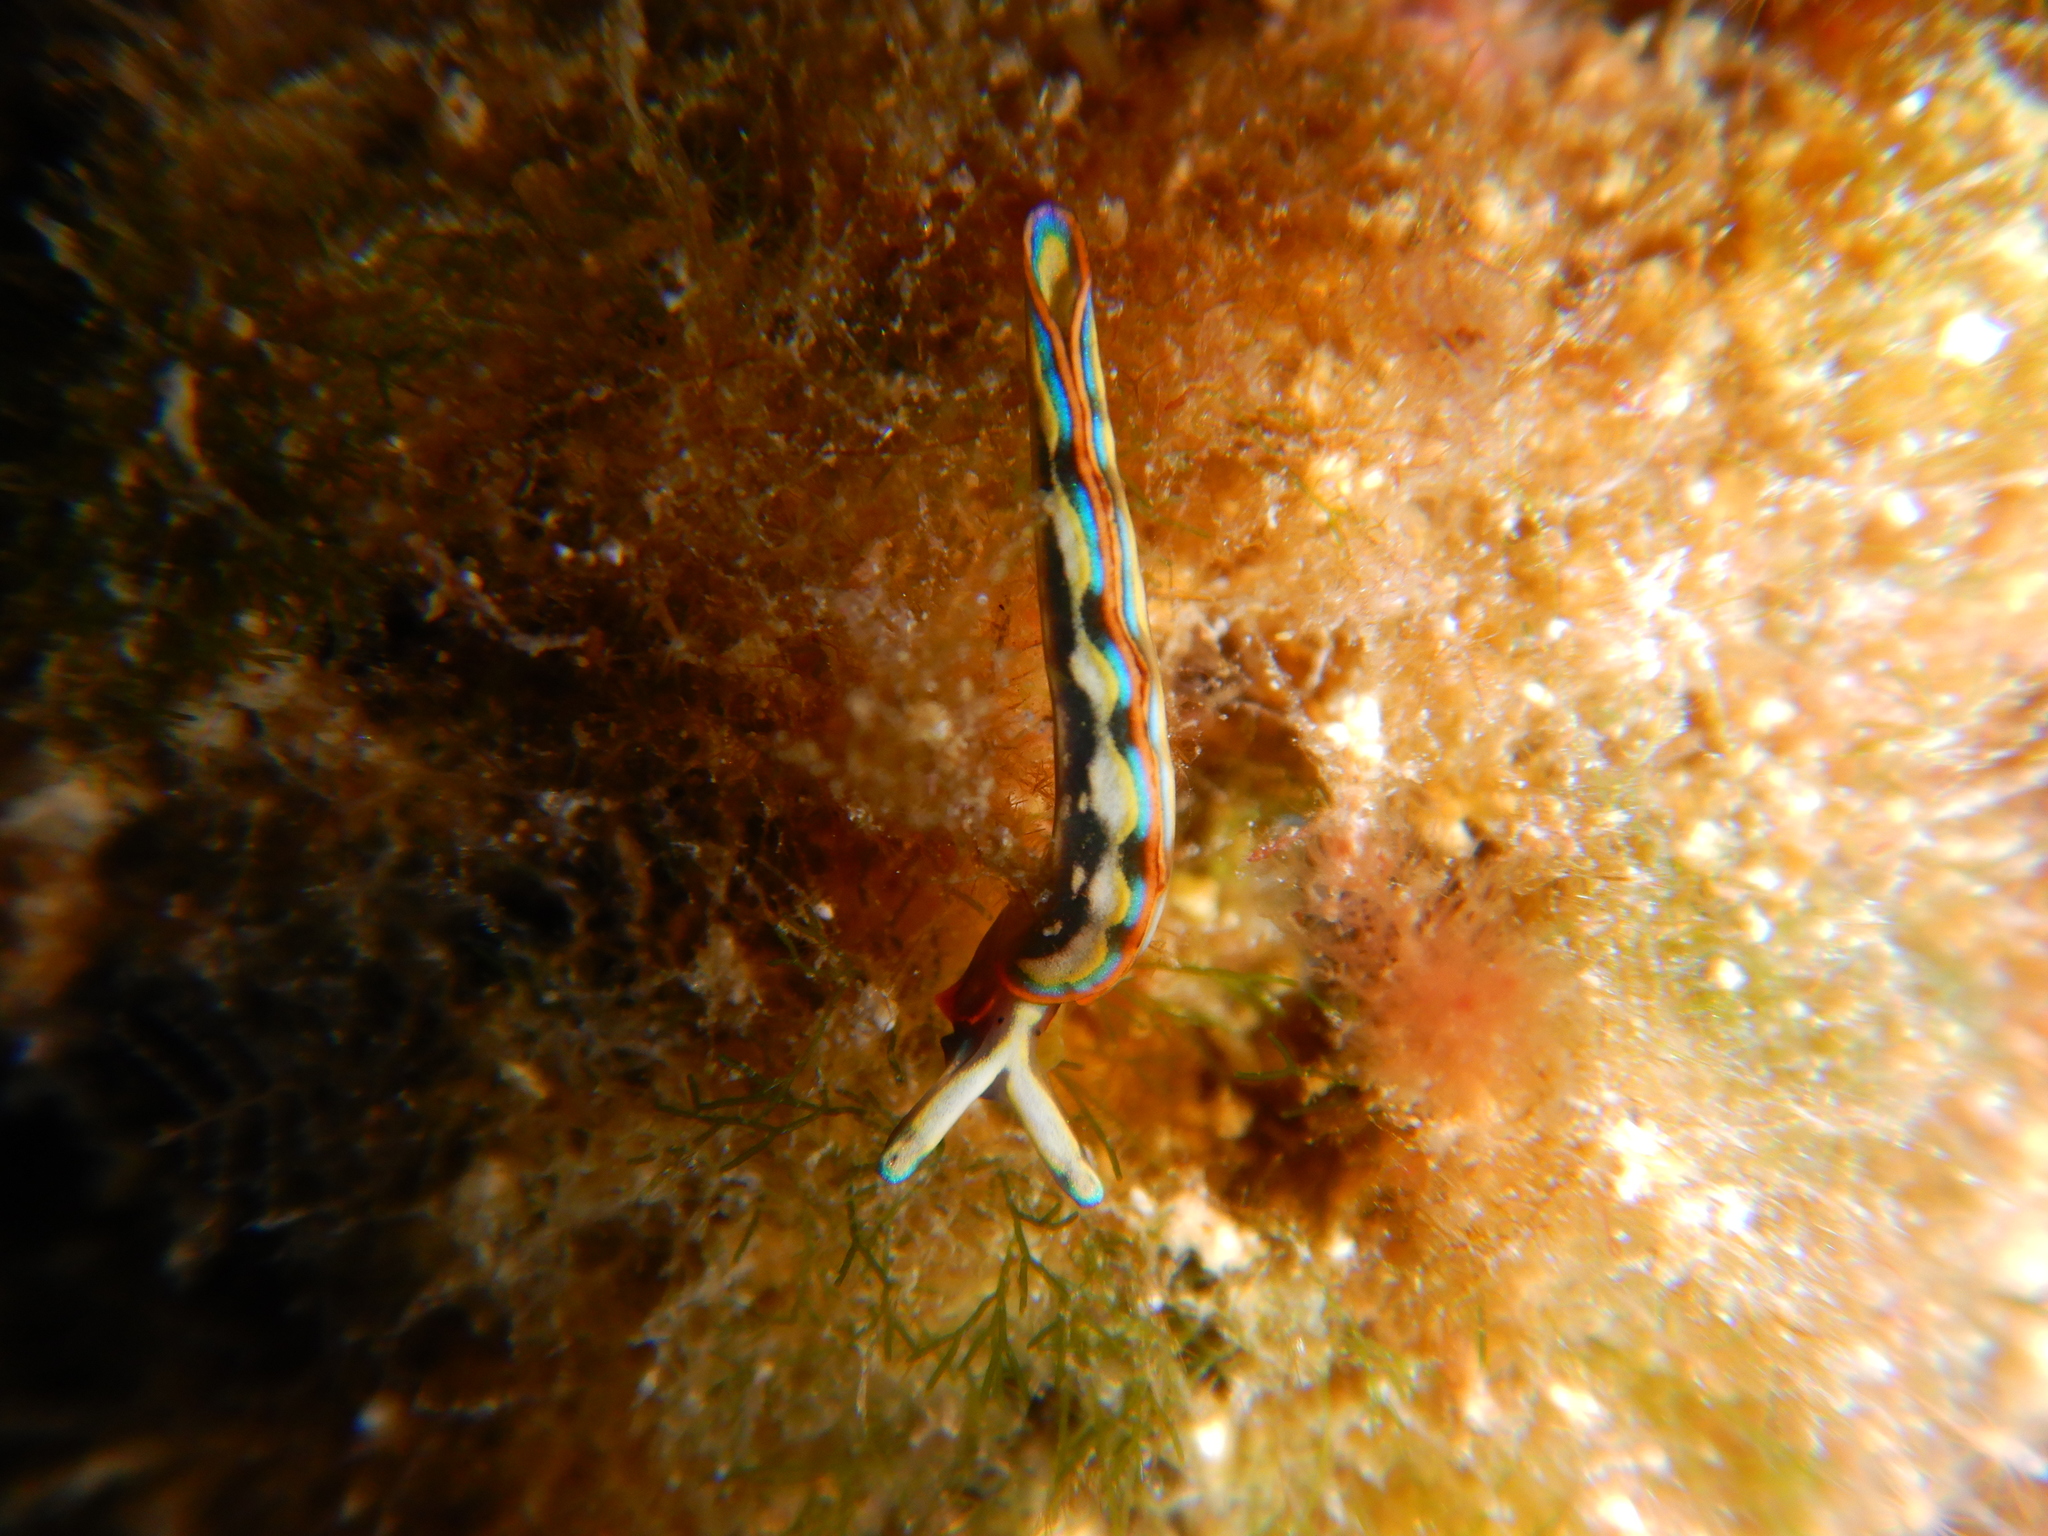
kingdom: Animalia
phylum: Mollusca
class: Gastropoda
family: Plakobranchidae
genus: Thuridilla
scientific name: Thuridilla hopei
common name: Splendid elysia
